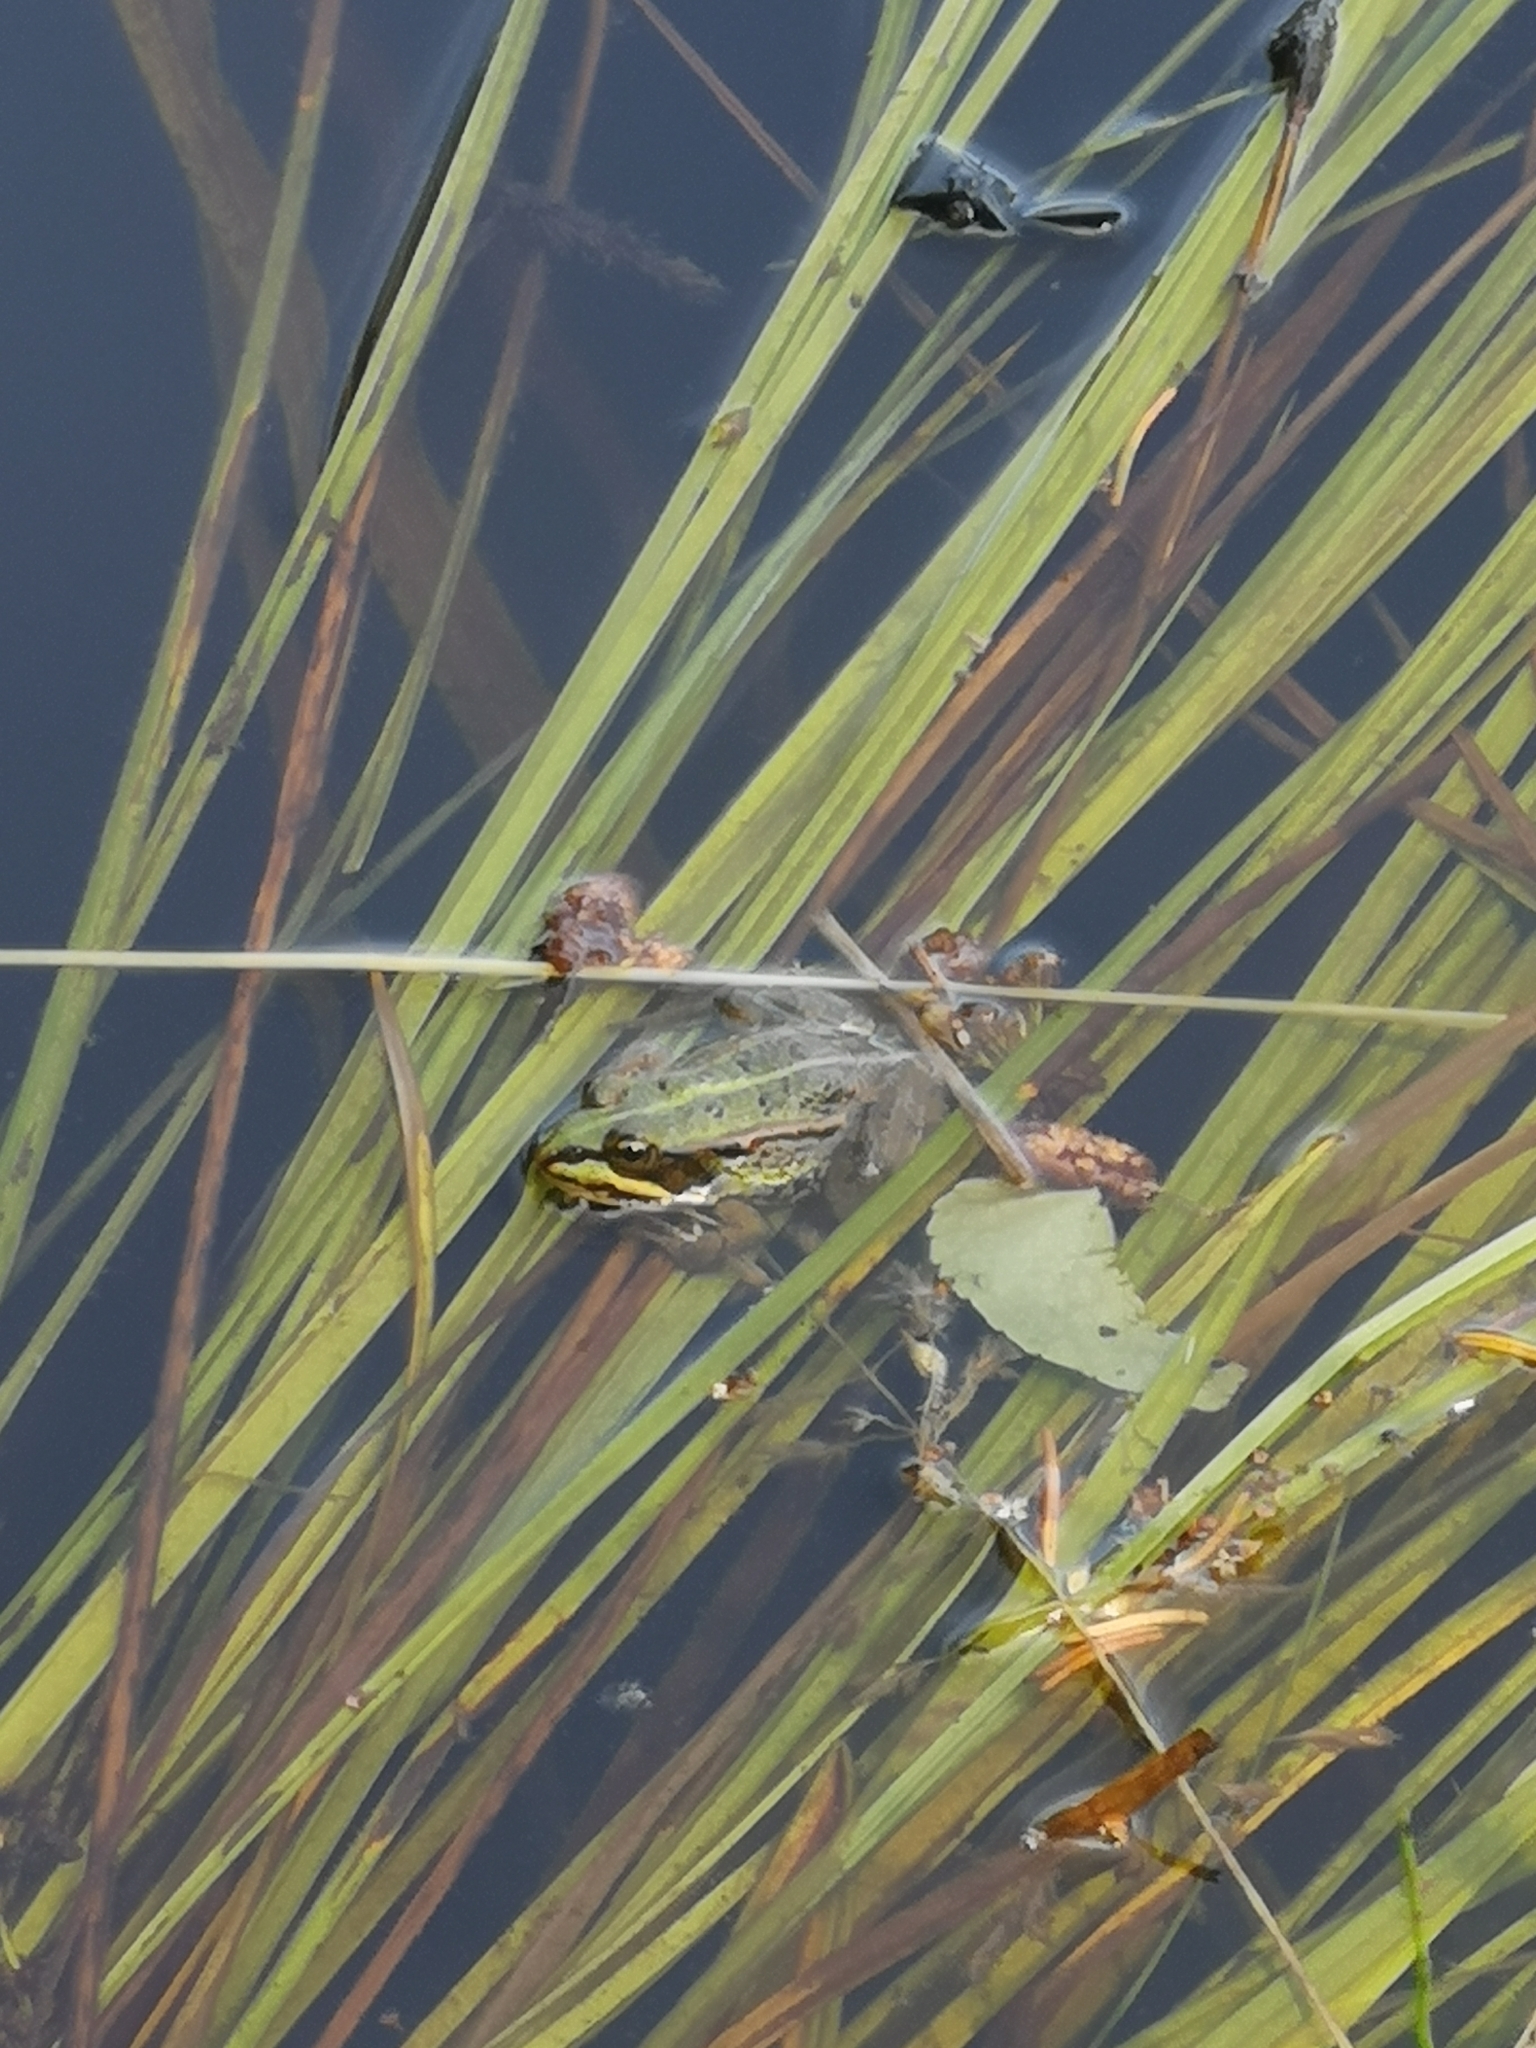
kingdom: Animalia
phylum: Chordata
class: Amphibia
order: Anura
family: Ranidae
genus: Pelophylax
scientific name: Pelophylax
